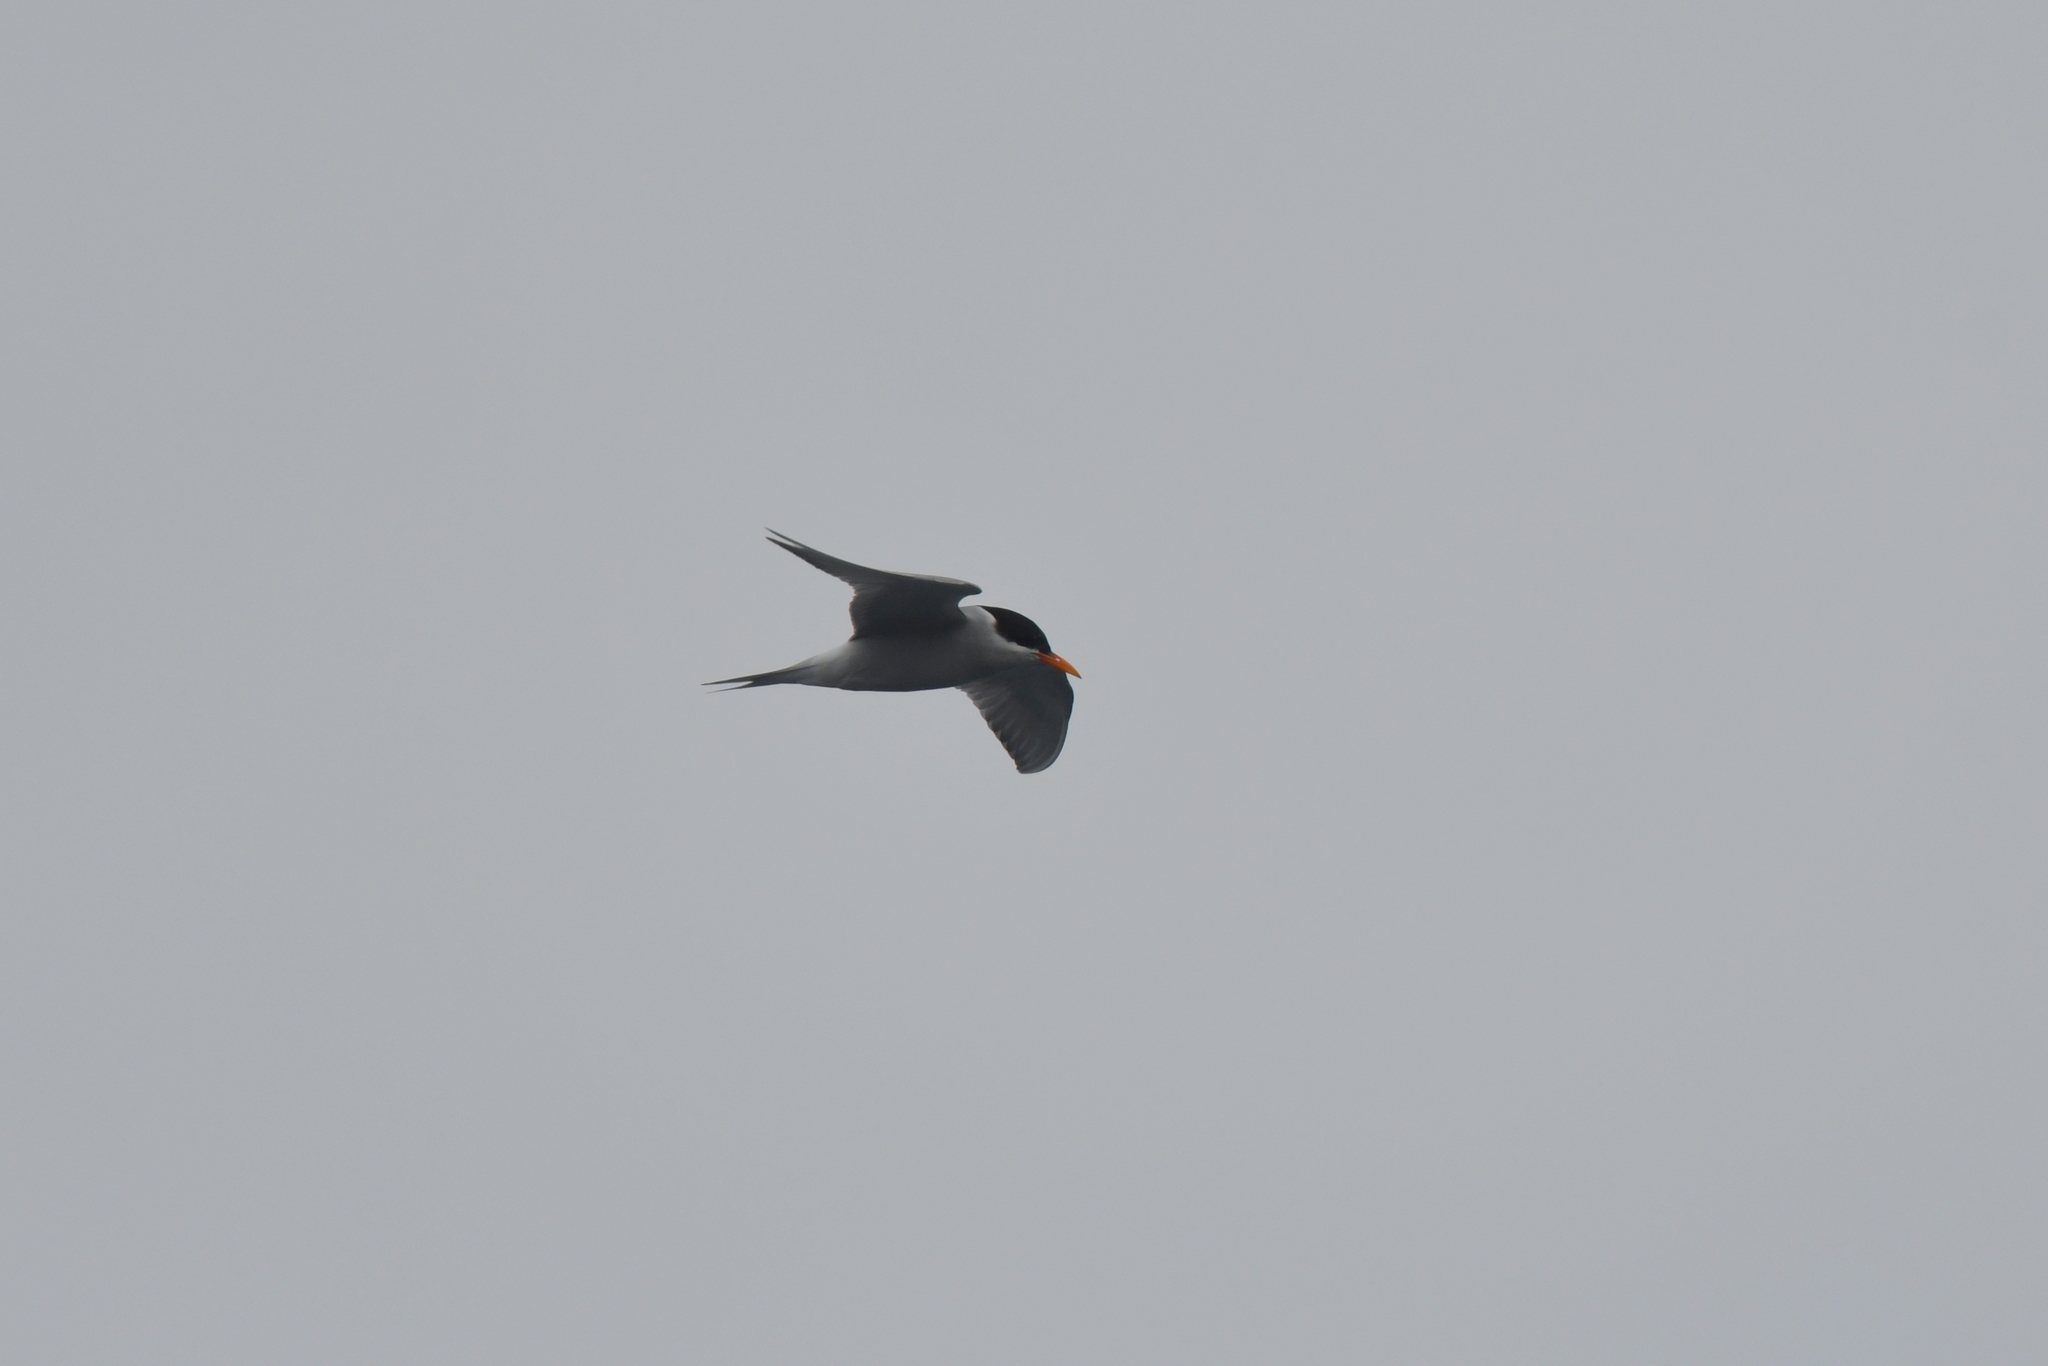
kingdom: Animalia
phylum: Chordata
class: Aves
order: Charadriiformes
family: Laridae
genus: Chlidonias
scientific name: Chlidonias albostriatus
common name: Black-fronted tern
